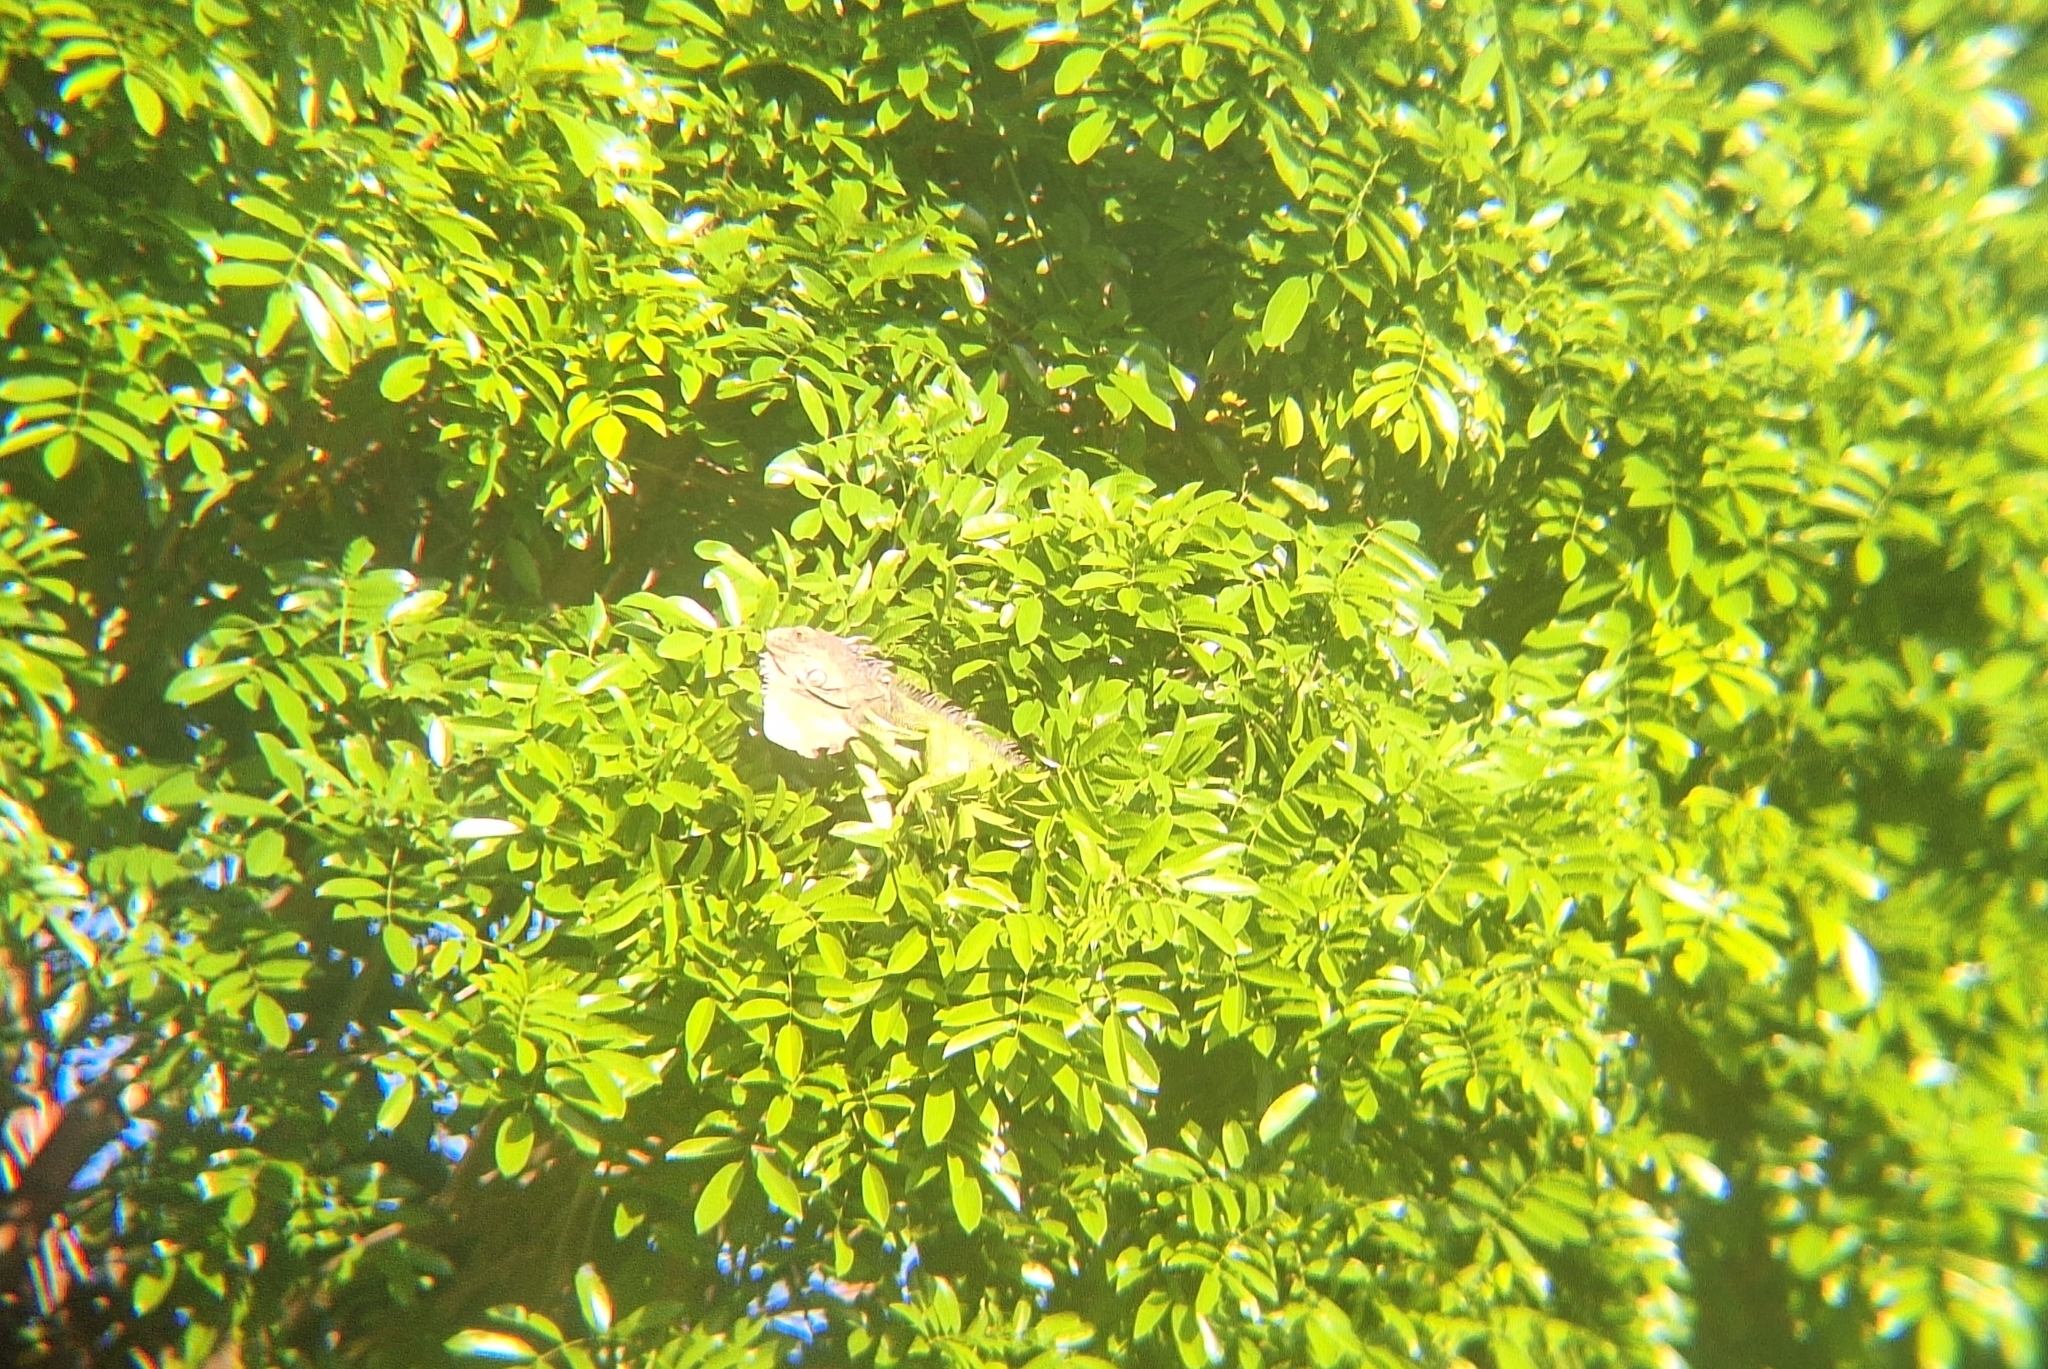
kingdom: Animalia
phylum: Chordata
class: Squamata
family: Iguanidae
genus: Iguana
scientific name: Iguana iguana
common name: Green iguana
